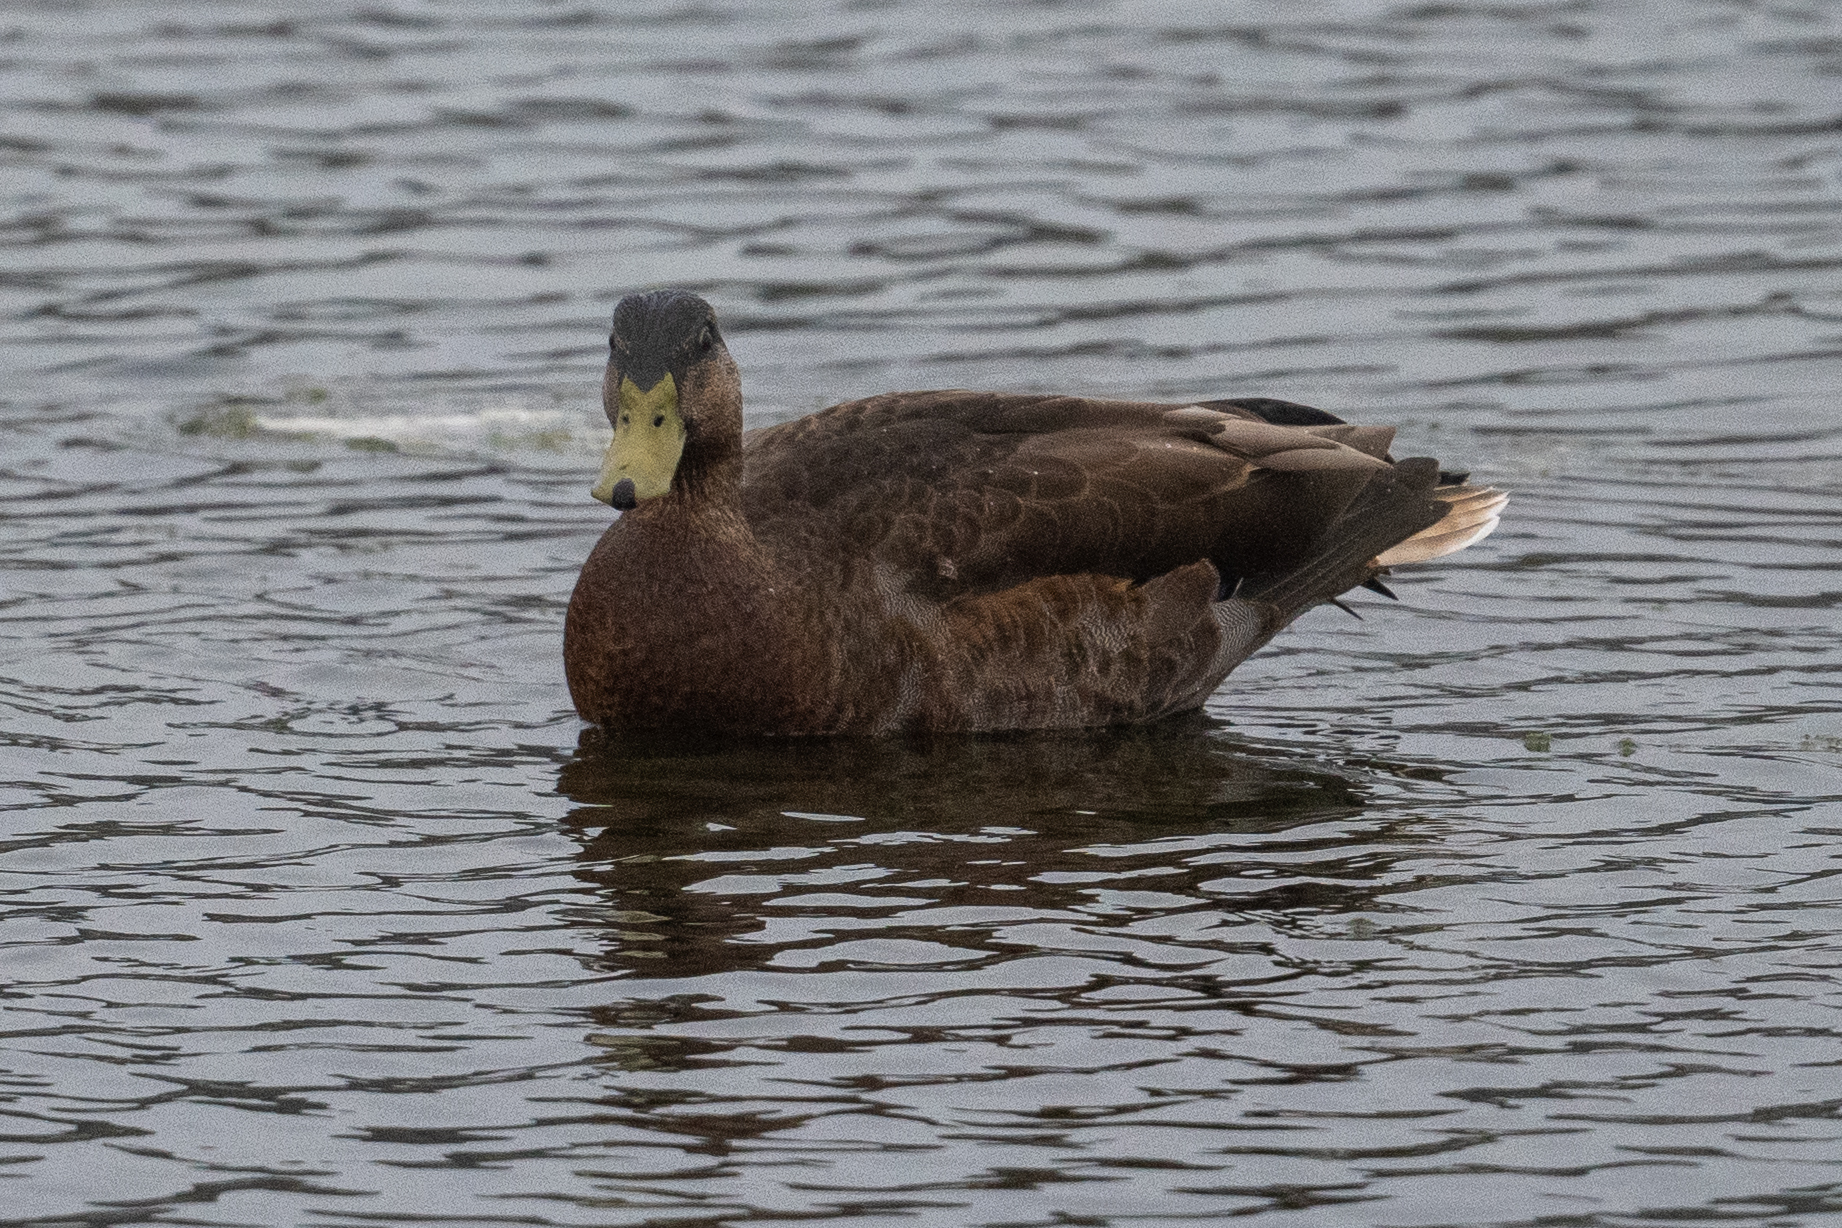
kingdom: Animalia
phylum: Chordata
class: Aves
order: Anseriformes
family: Anatidae
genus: Anas
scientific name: Anas platyrhynchos
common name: Mallard
